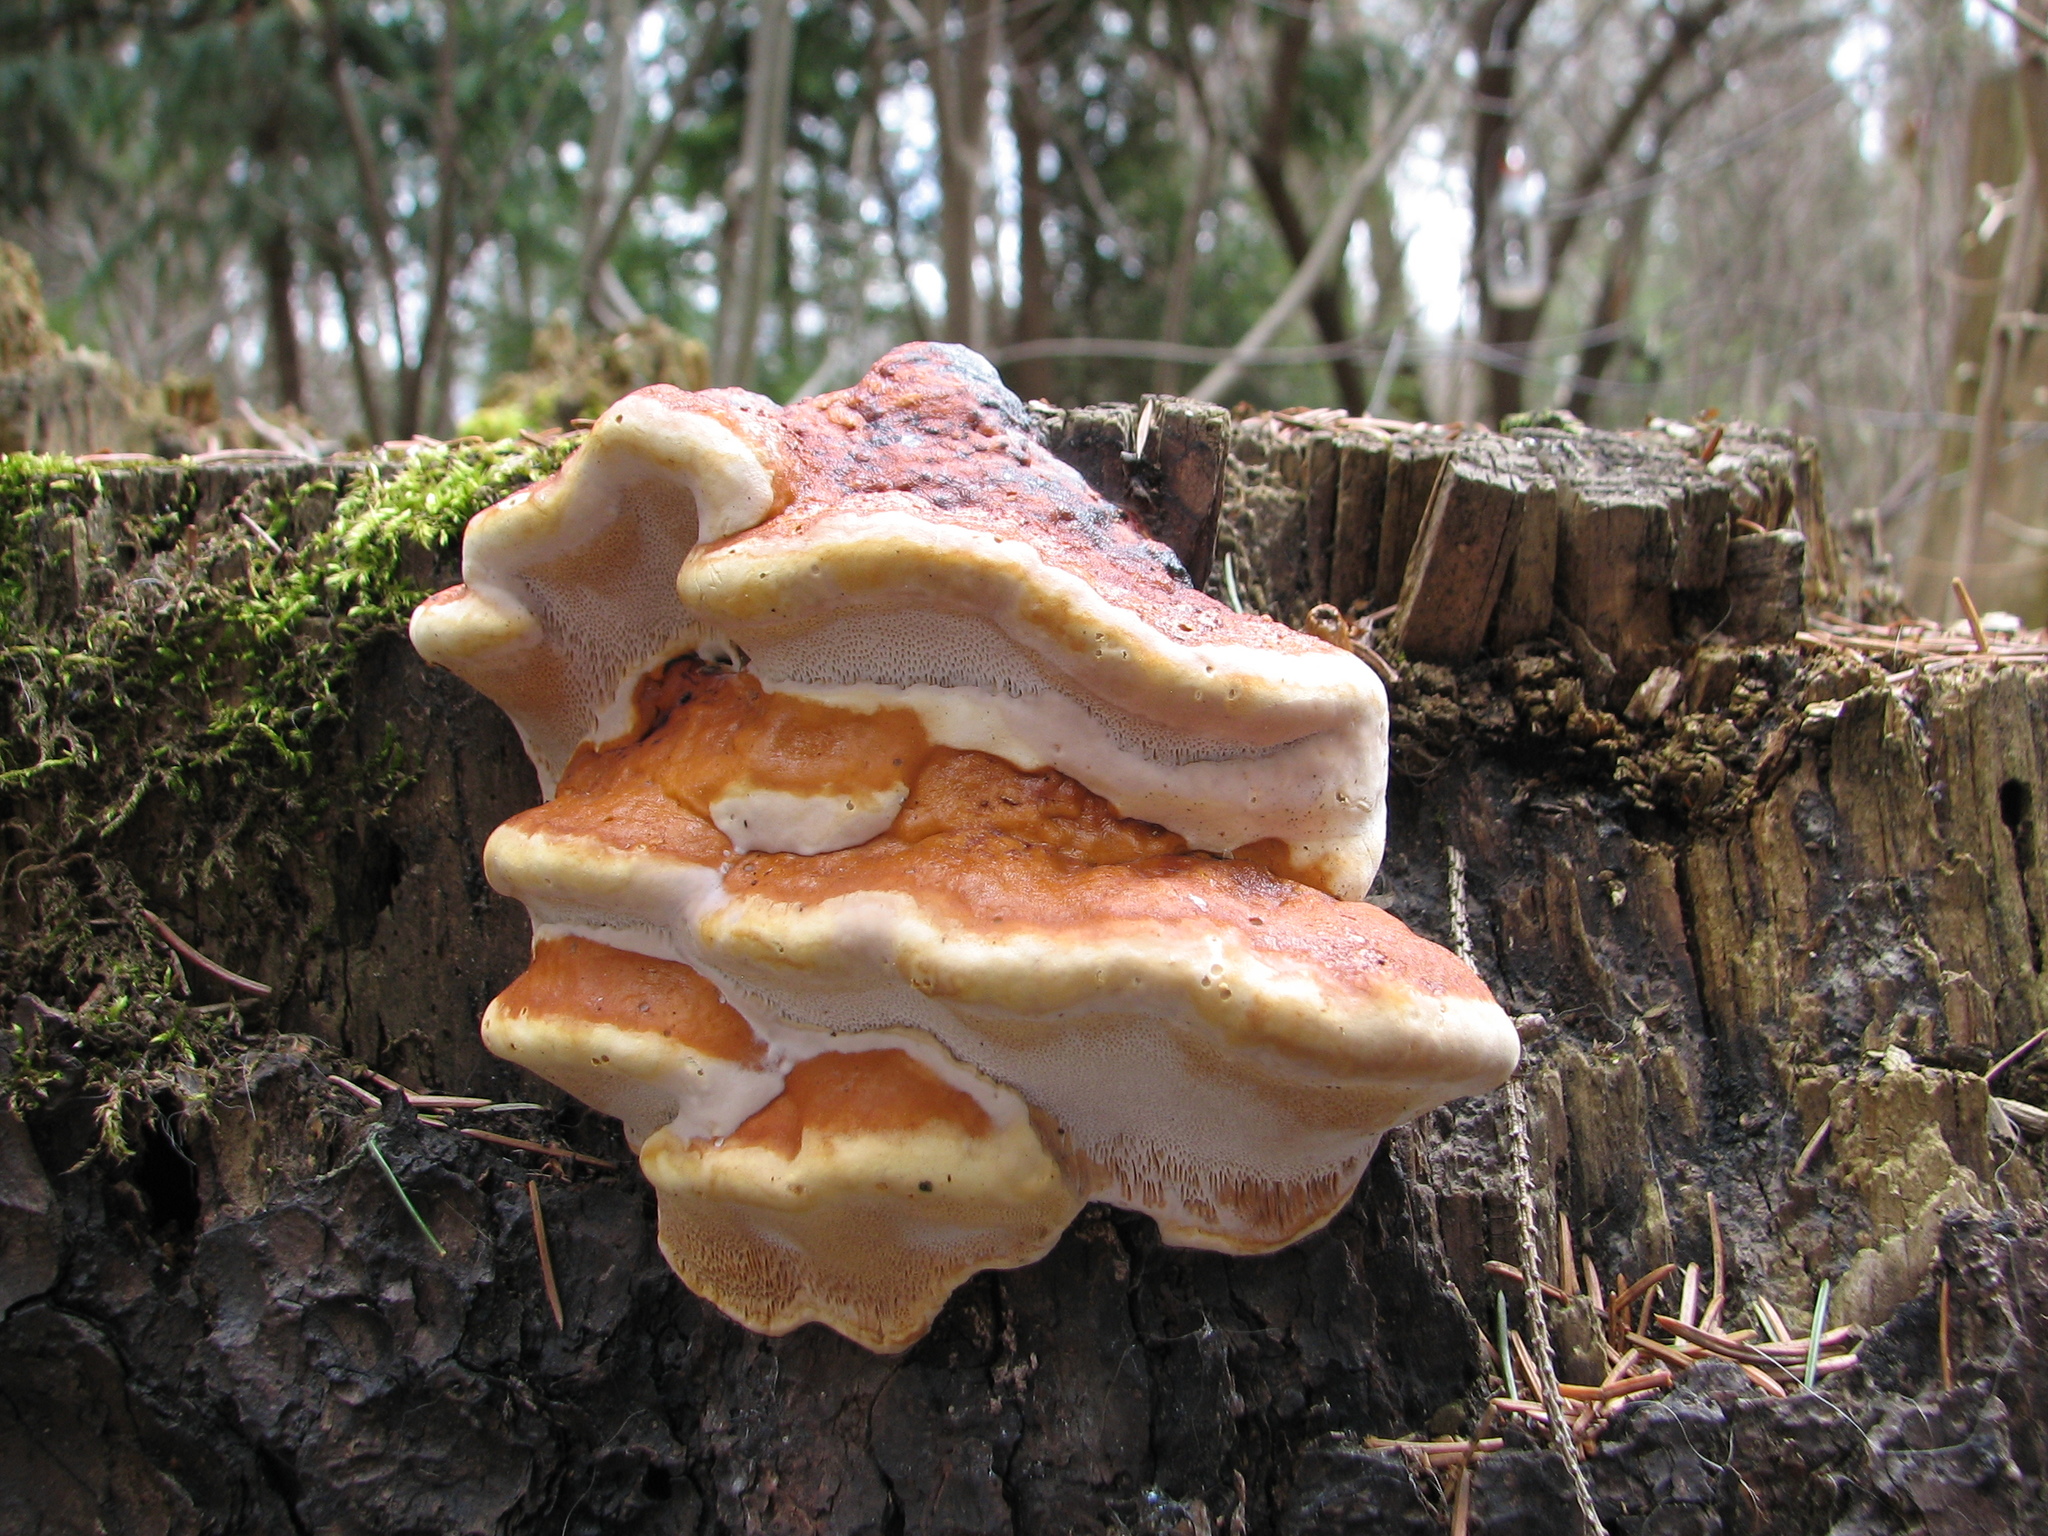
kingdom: Fungi
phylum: Basidiomycota
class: Agaricomycetes
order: Polyporales
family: Fomitopsidaceae
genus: Fomitopsis
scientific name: Fomitopsis pinicola
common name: Red-belted bracket
